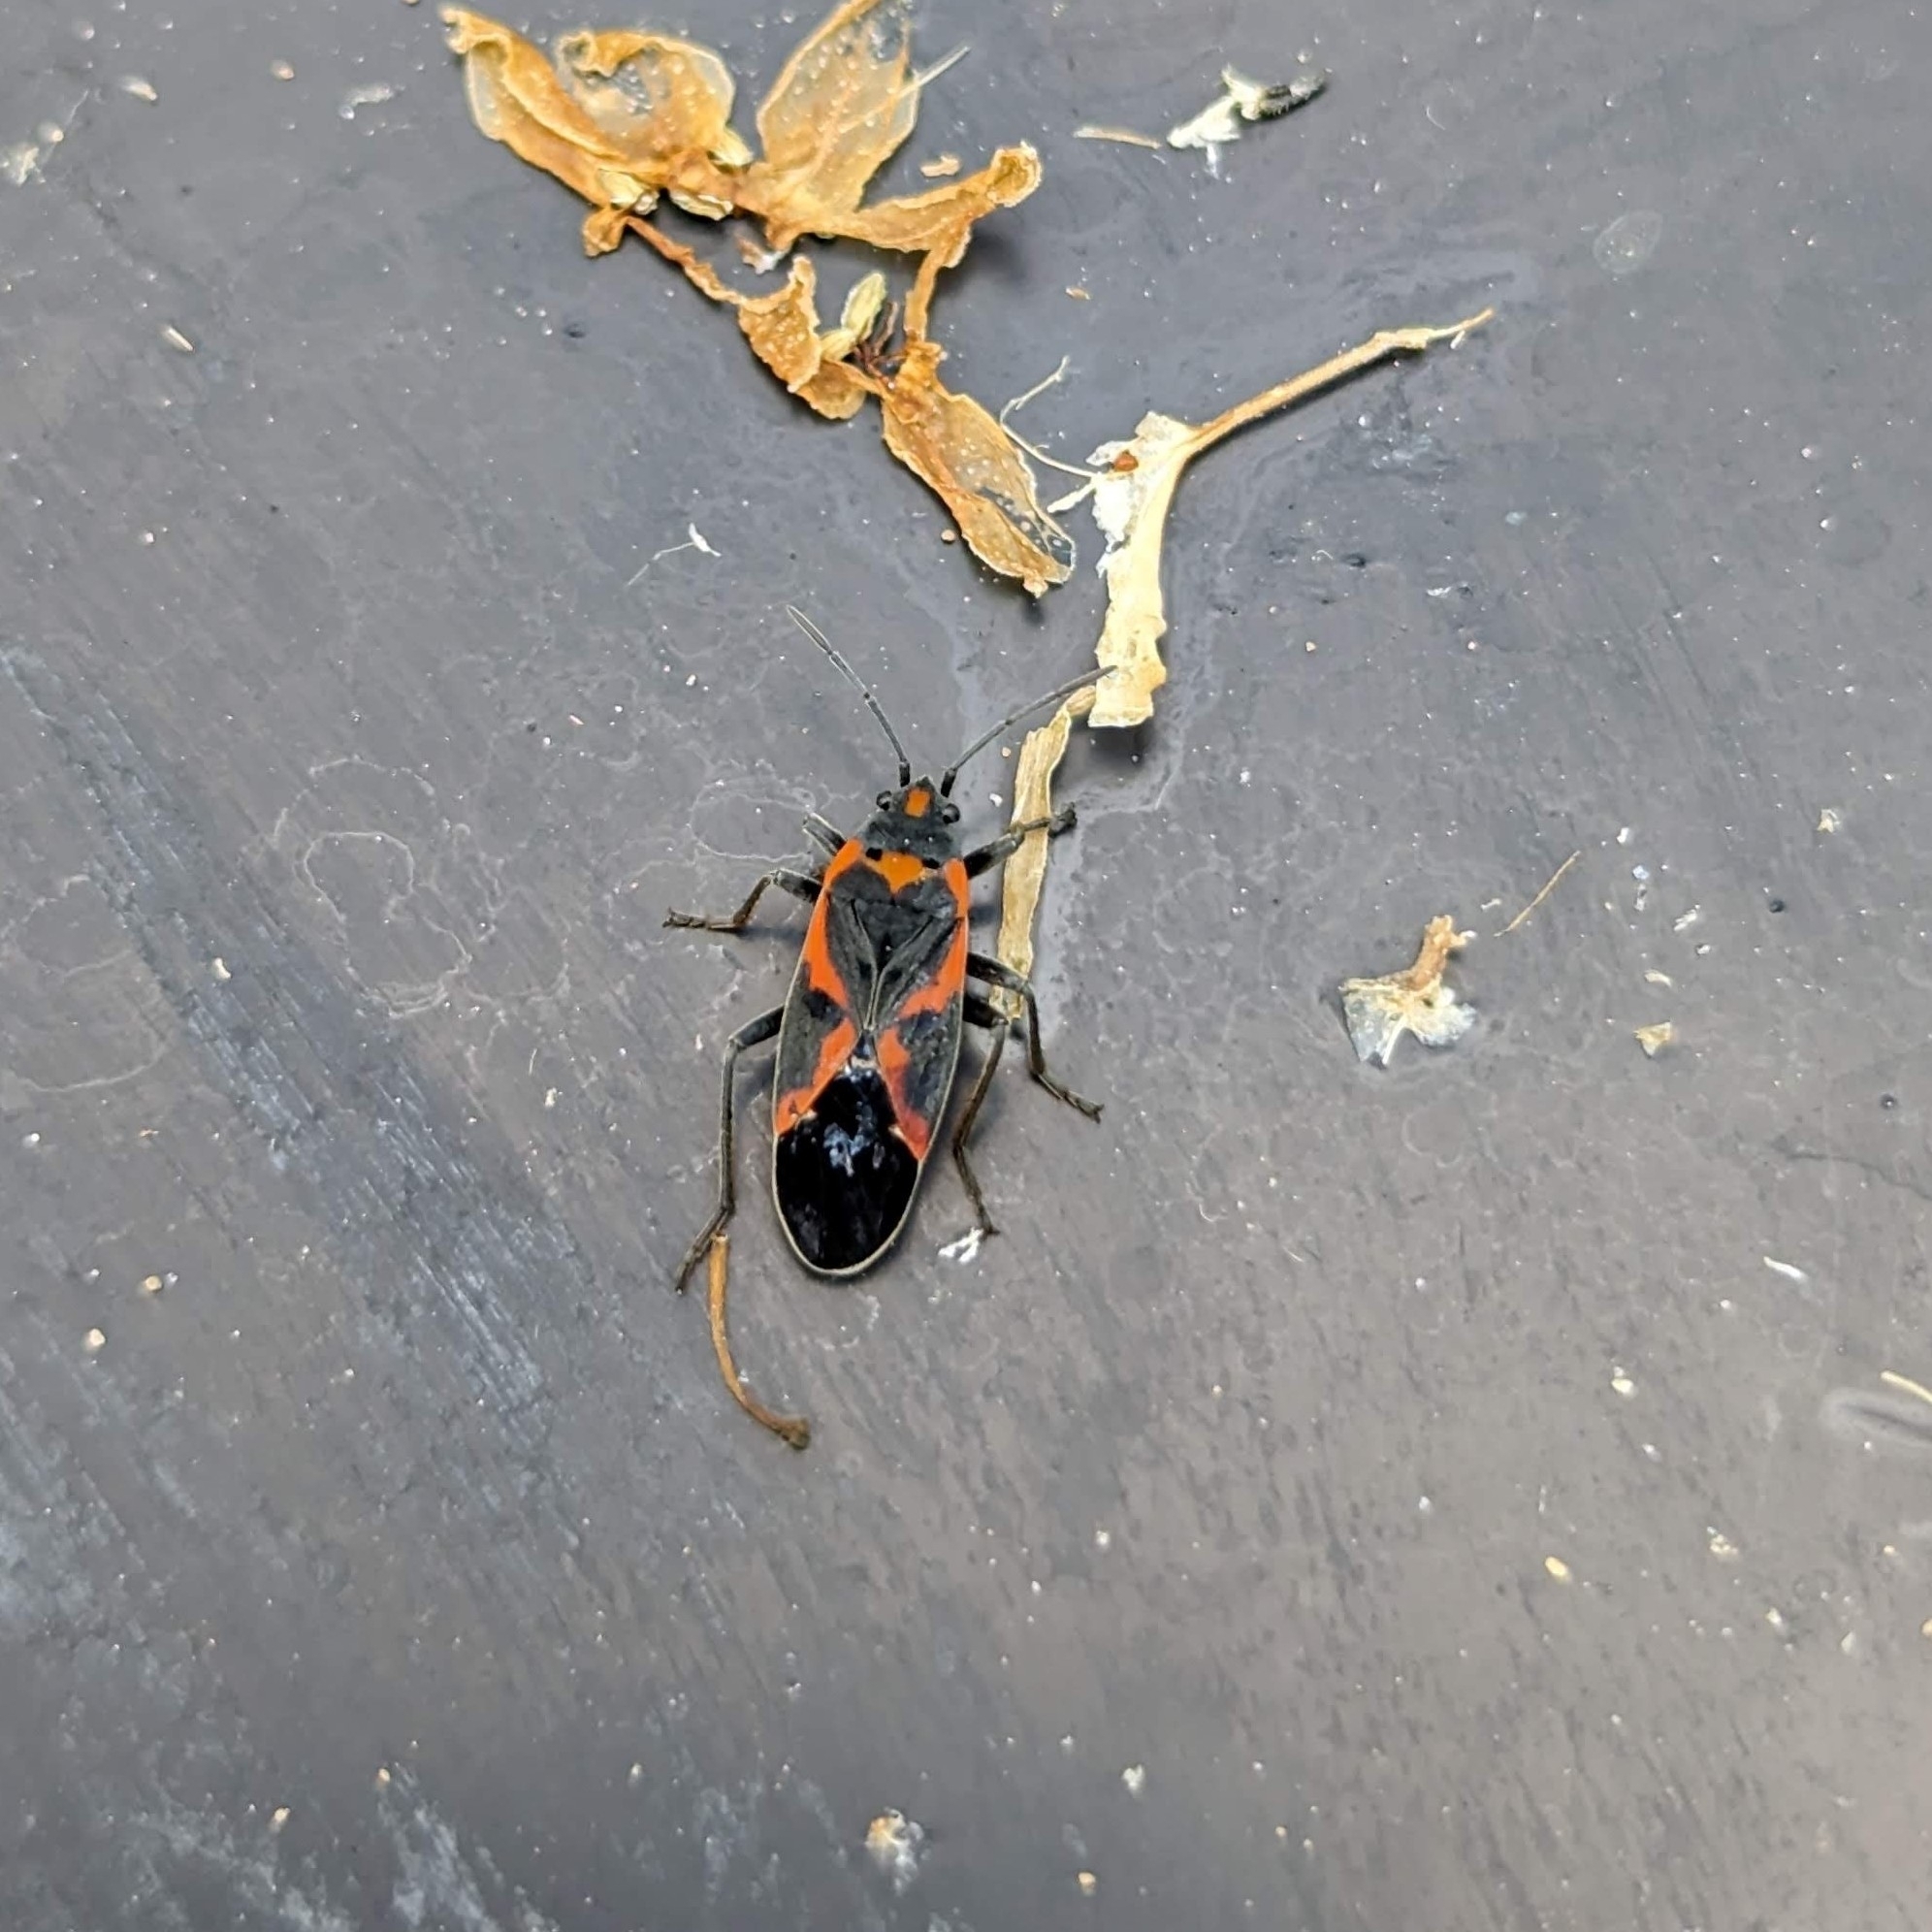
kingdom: Animalia
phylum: Arthropoda
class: Insecta
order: Hemiptera
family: Lygaeidae
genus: Lygaeus
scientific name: Lygaeus kalmii
